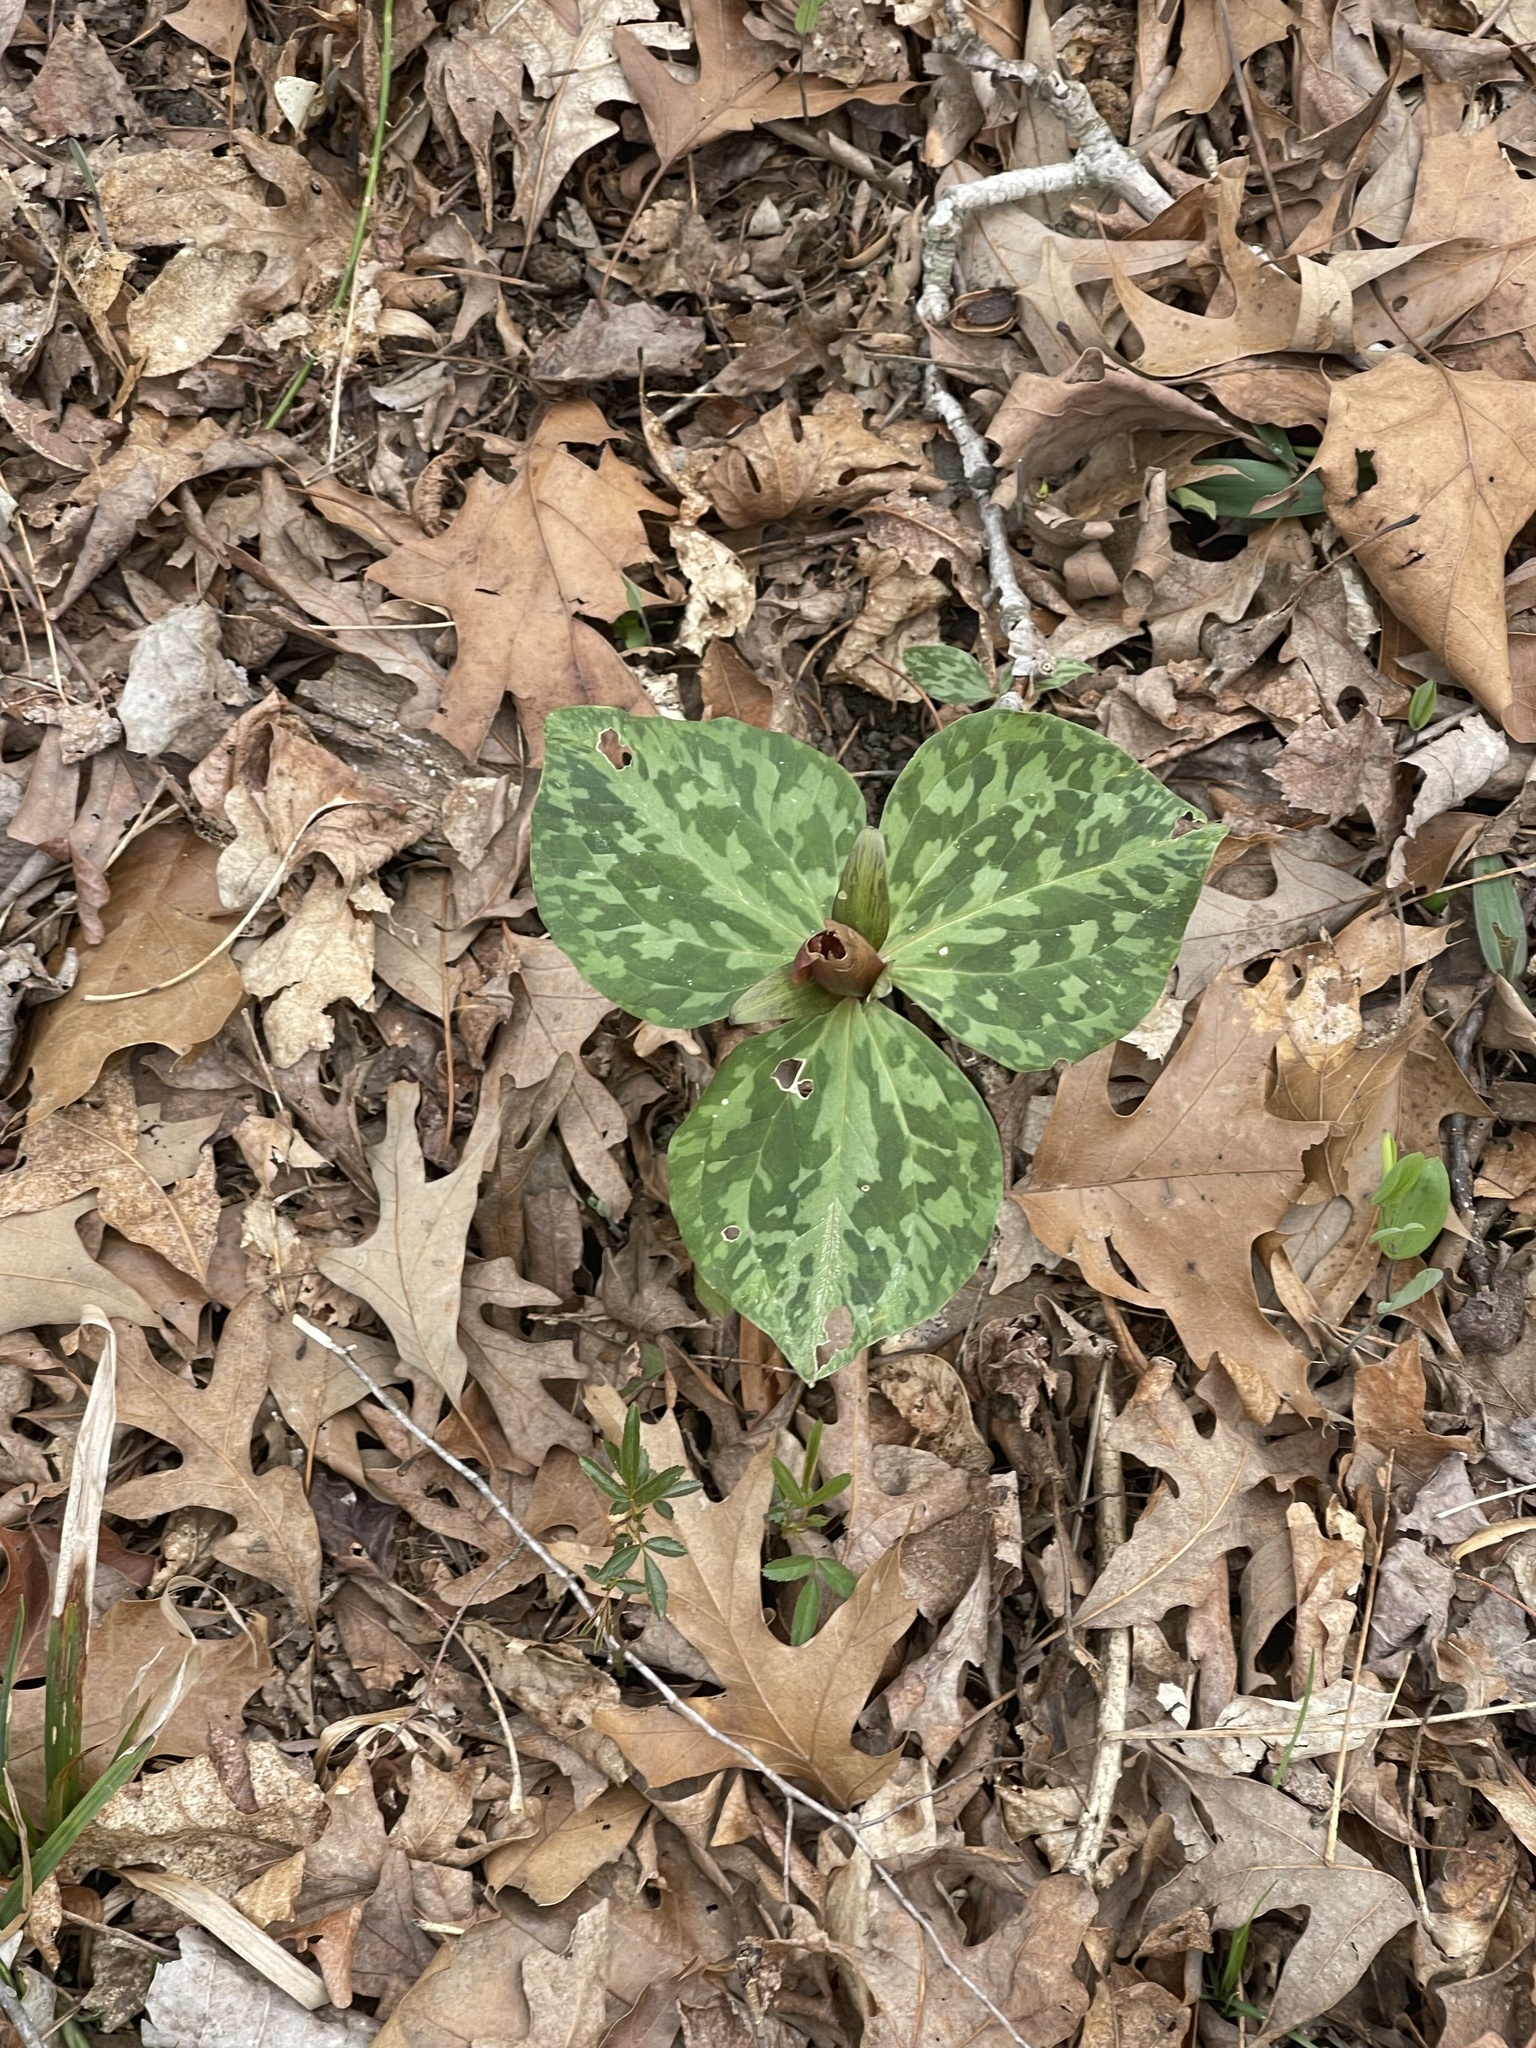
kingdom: Plantae
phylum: Tracheophyta
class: Liliopsida
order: Liliales
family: Melanthiaceae
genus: Trillium
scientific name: Trillium cuneatum
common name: Cuneate trillium
